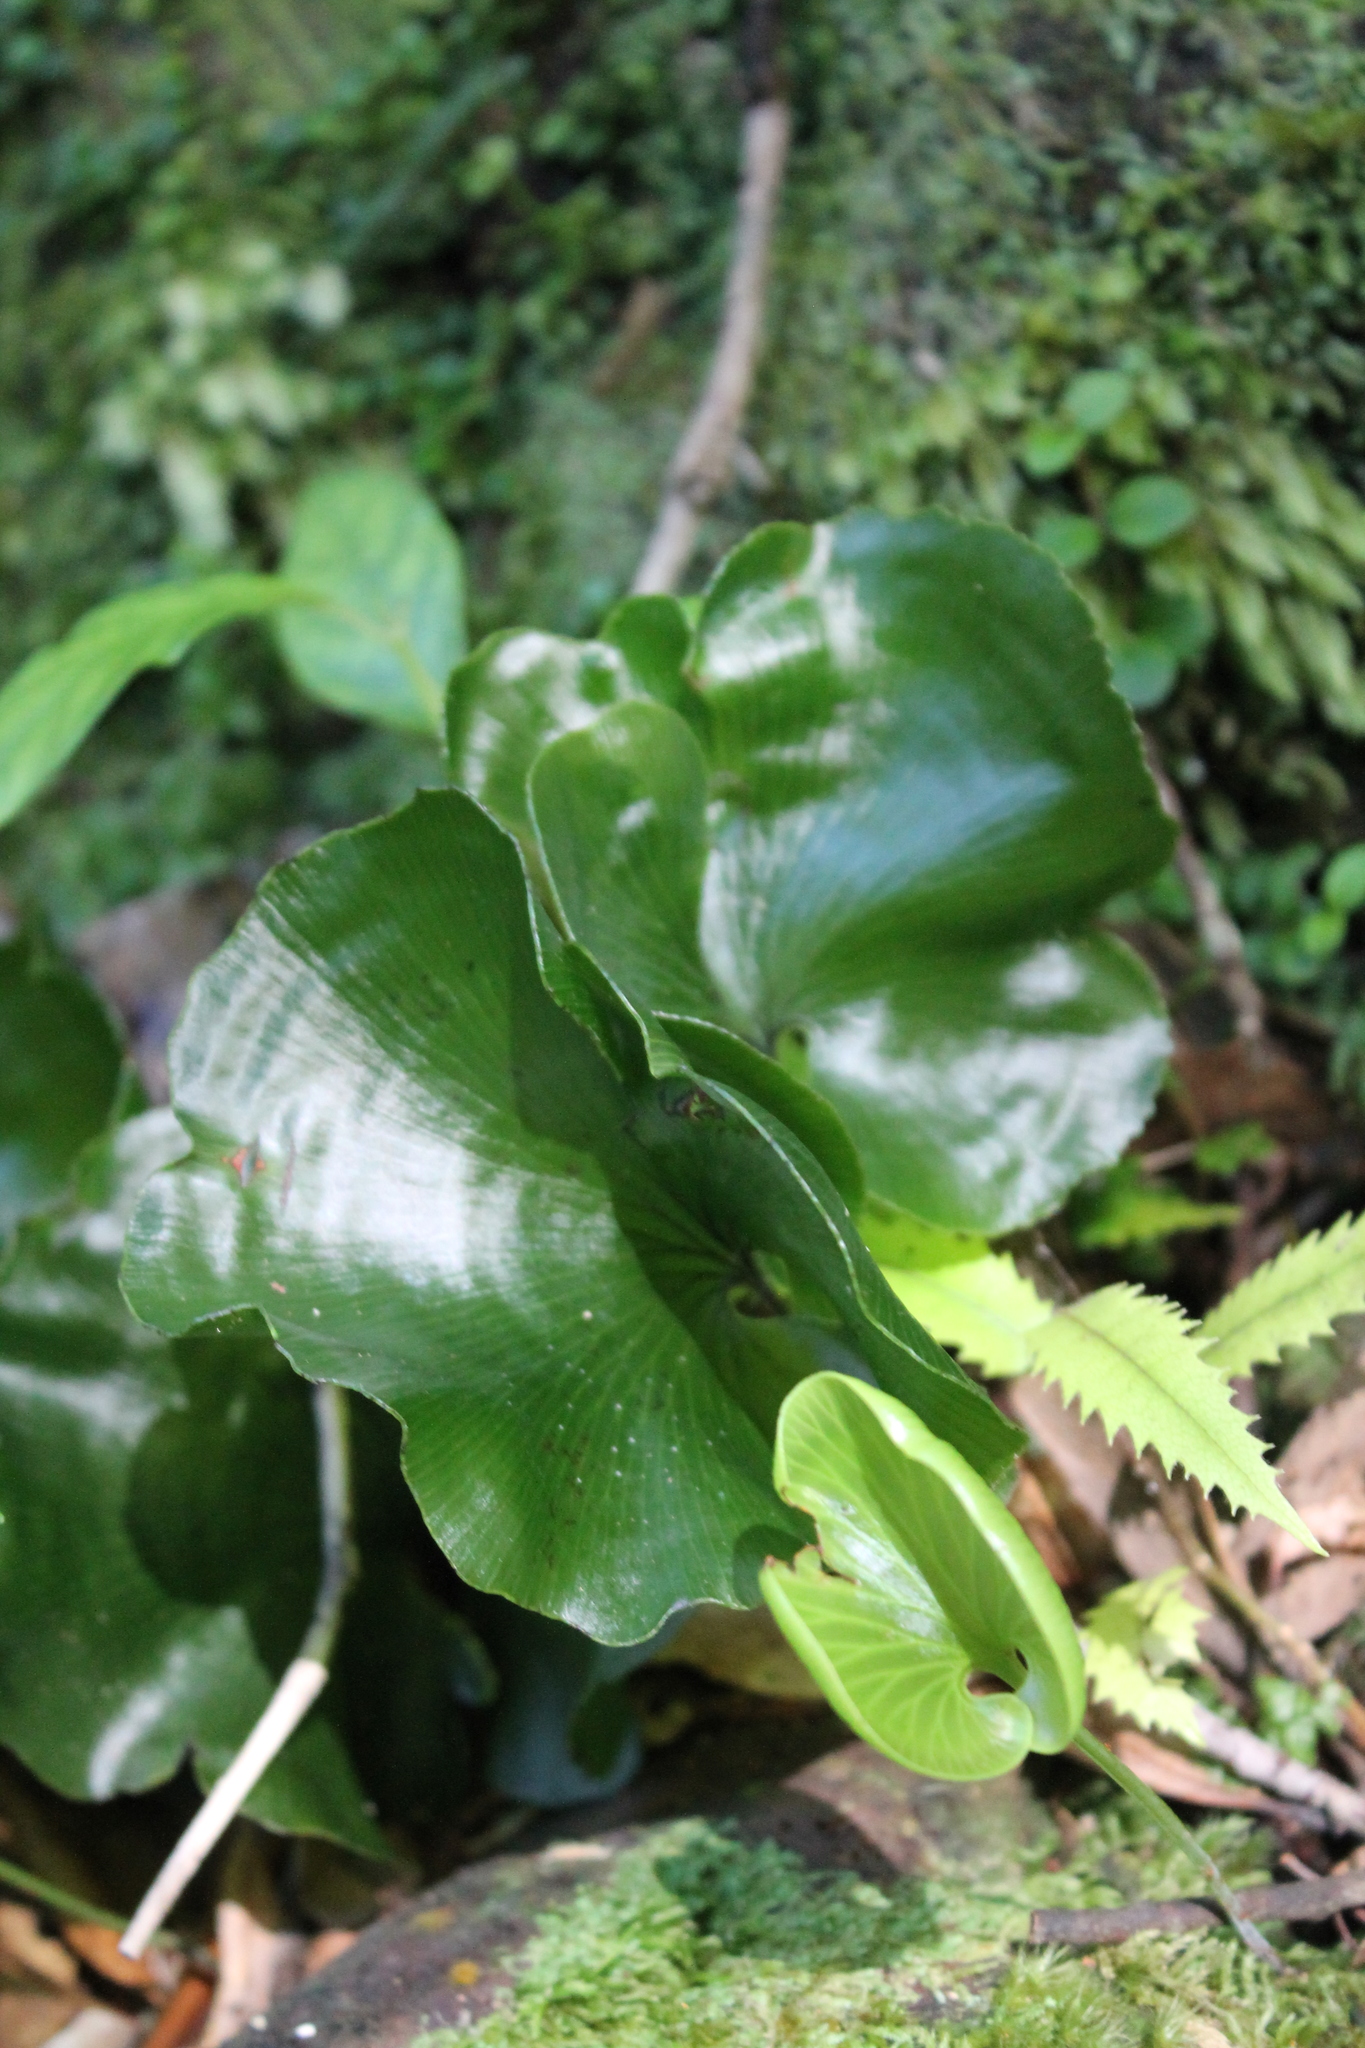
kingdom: Plantae
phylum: Tracheophyta
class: Polypodiopsida
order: Hymenophyllales
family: Hymenophyllaceae
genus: Hymenophyllum
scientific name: Hymenophyllum nephrophyllum
